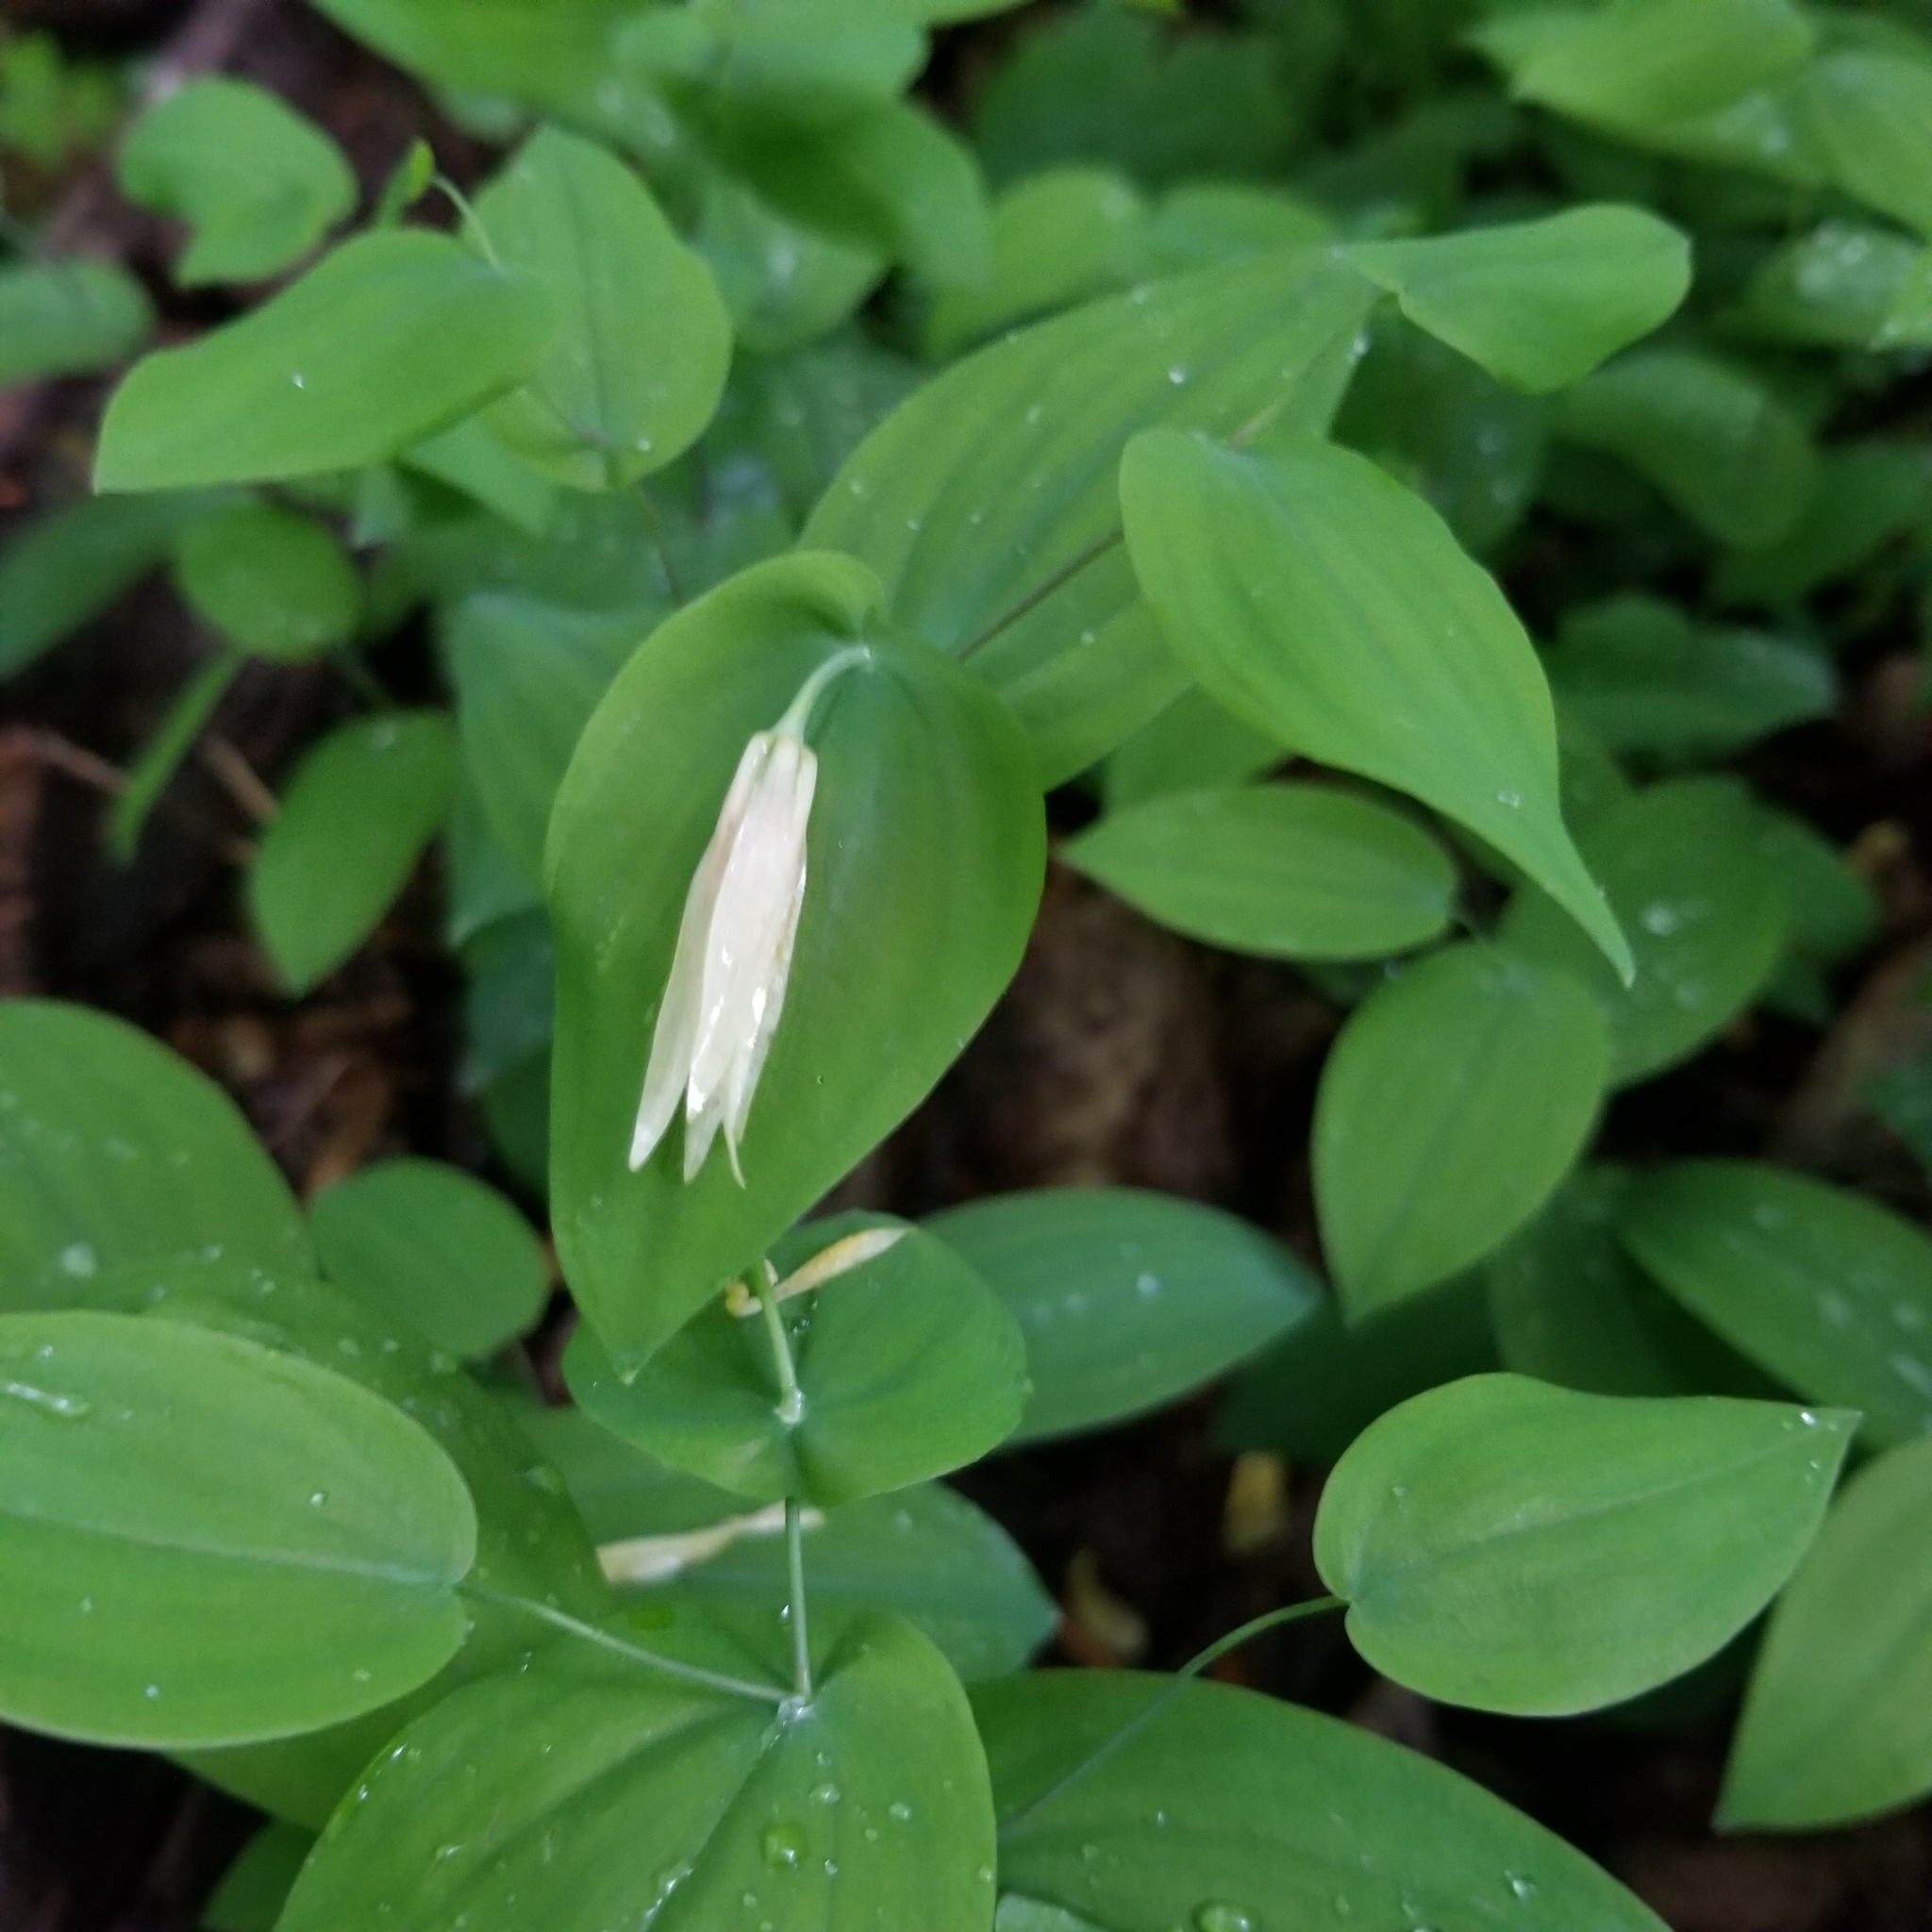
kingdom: Plantae
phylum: Tracheophyta
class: Liliopsida
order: Liliales
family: Colchicaceae
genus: Uvularia
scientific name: Uvularia perfoliata
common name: Perfoliate bellwort
